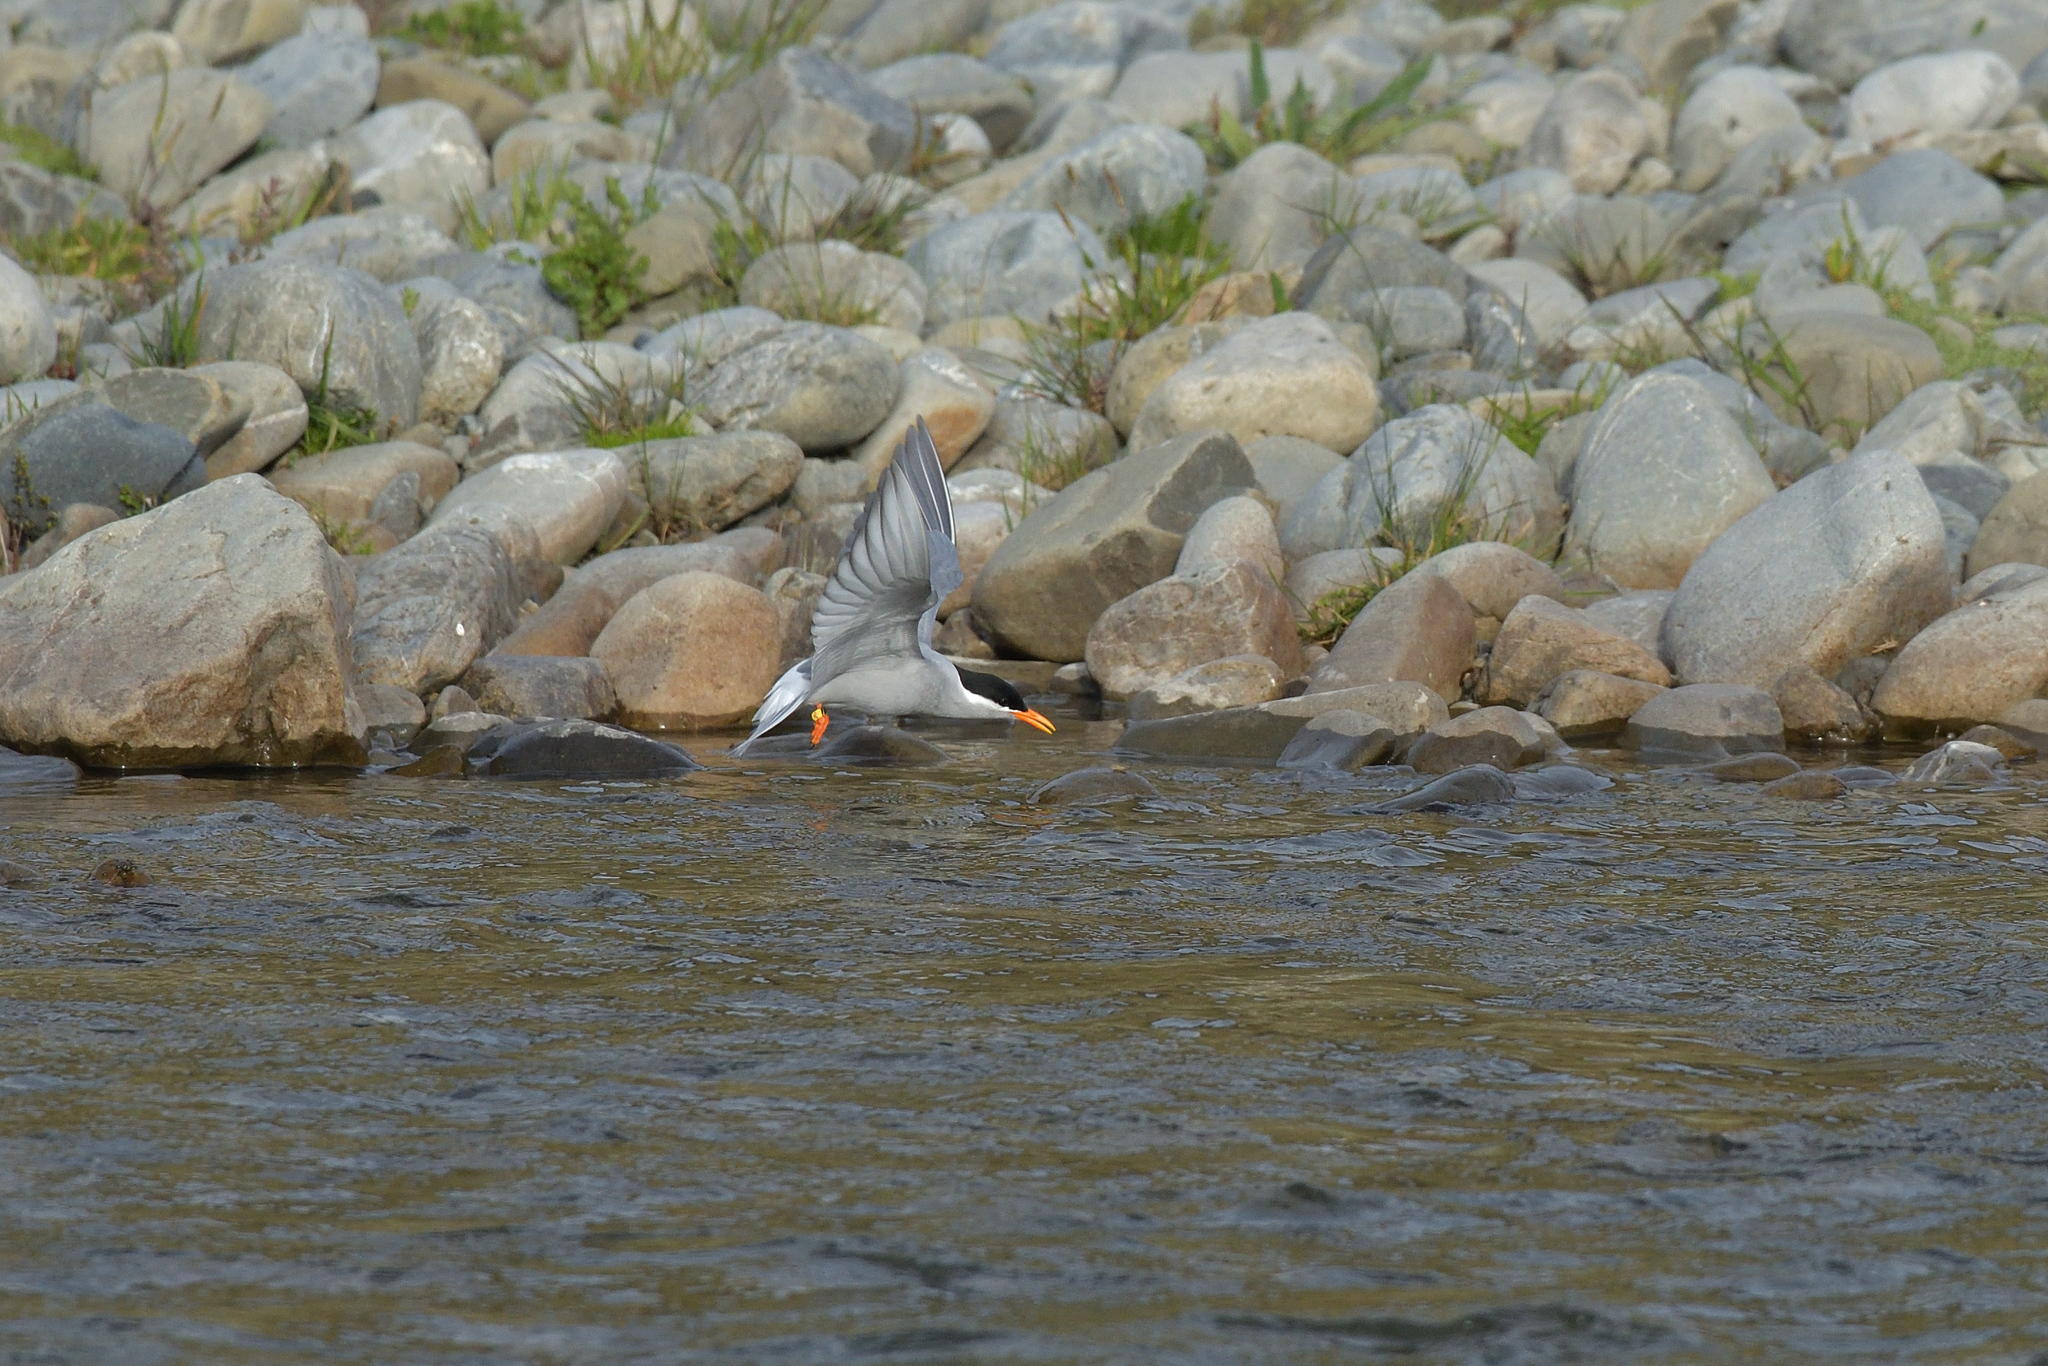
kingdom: Animalia
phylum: Chordata
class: Aves
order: Charadriiformes
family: Laridae
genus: Chlidonias
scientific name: Chlidonias albostriatus
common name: Black-fronted tern
